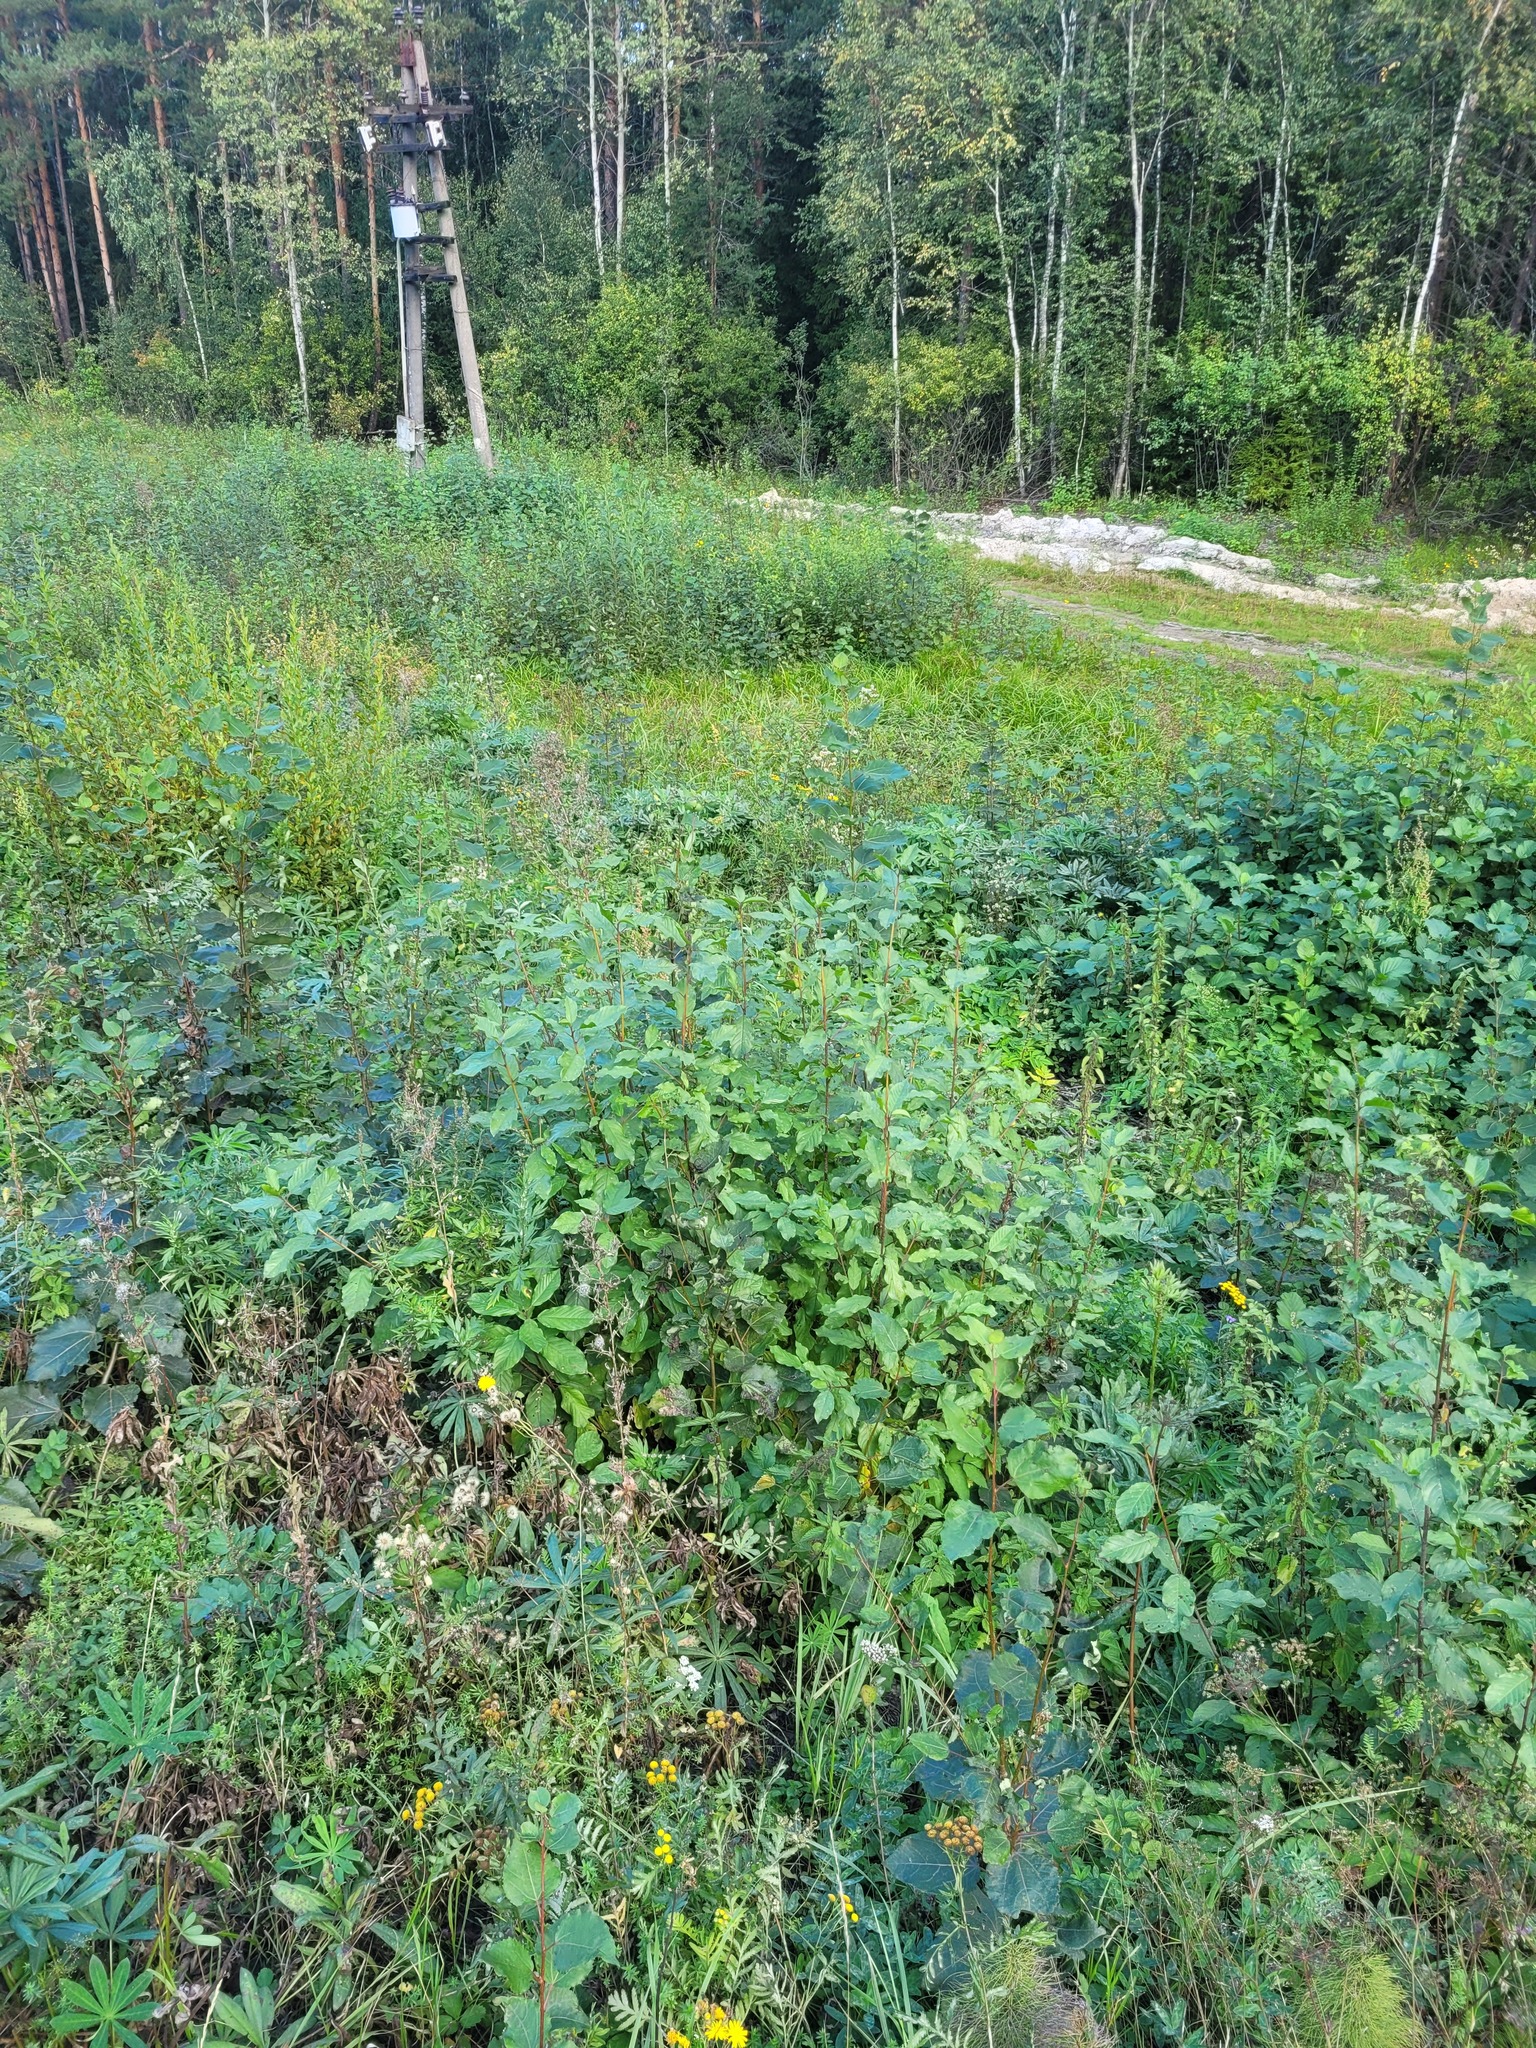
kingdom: Plantae
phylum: Tracheophyta
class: Magnoliopsida
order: Rosales
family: Rhamnaceae
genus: Frangula
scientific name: Frangula alnus
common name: Alder buckthorn
